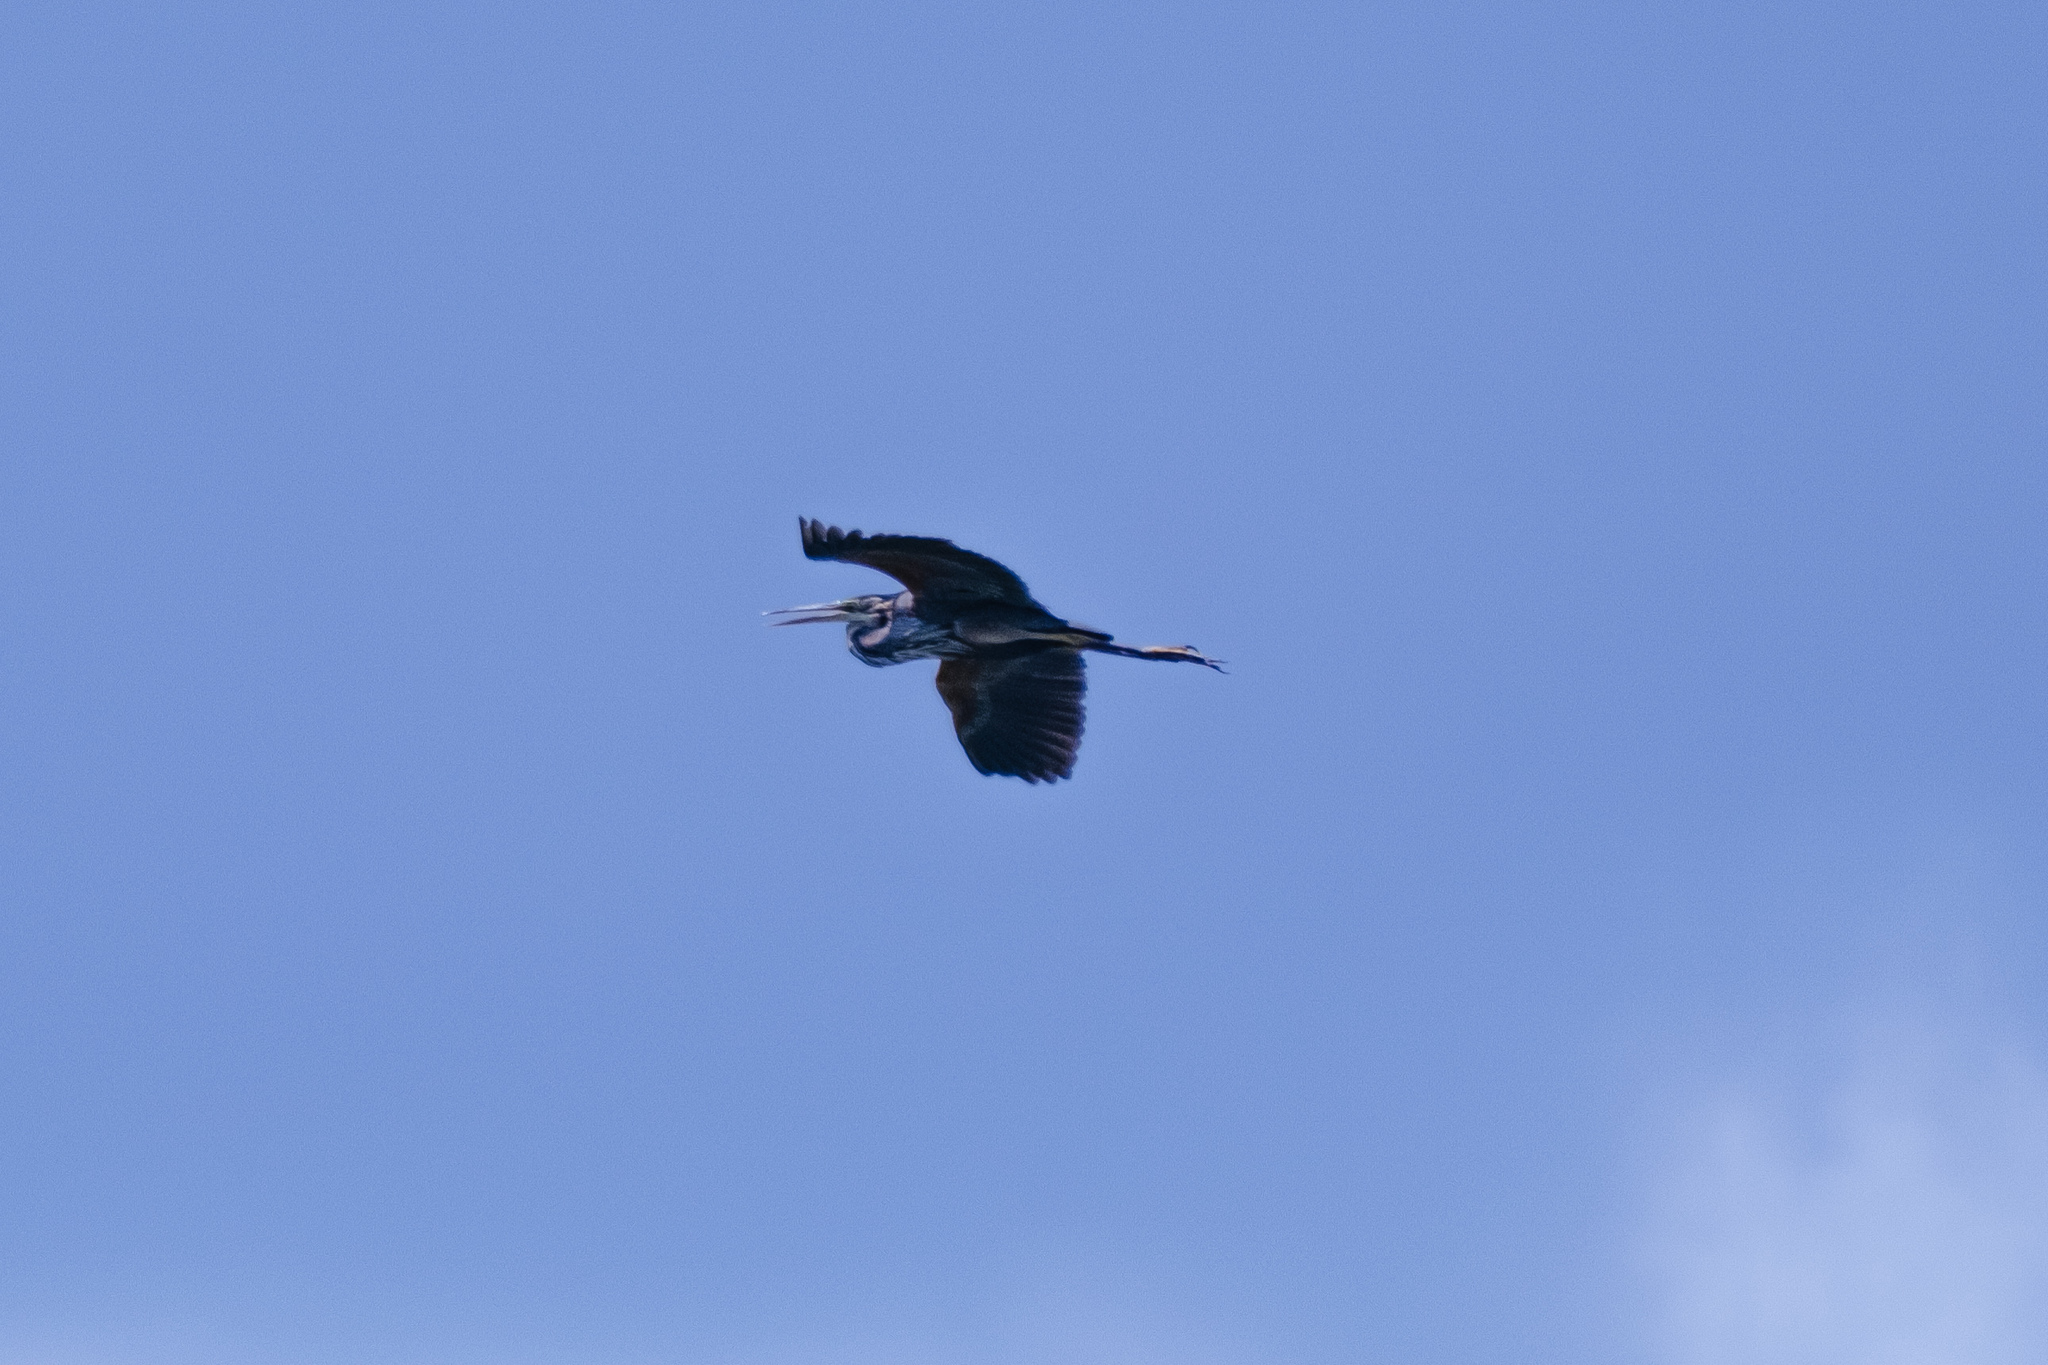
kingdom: Animalia
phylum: Chordata
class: Aves
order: Pelecaniformes
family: Ardeidae
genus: Ardea
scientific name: Ardea purpurea
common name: Purple heron
